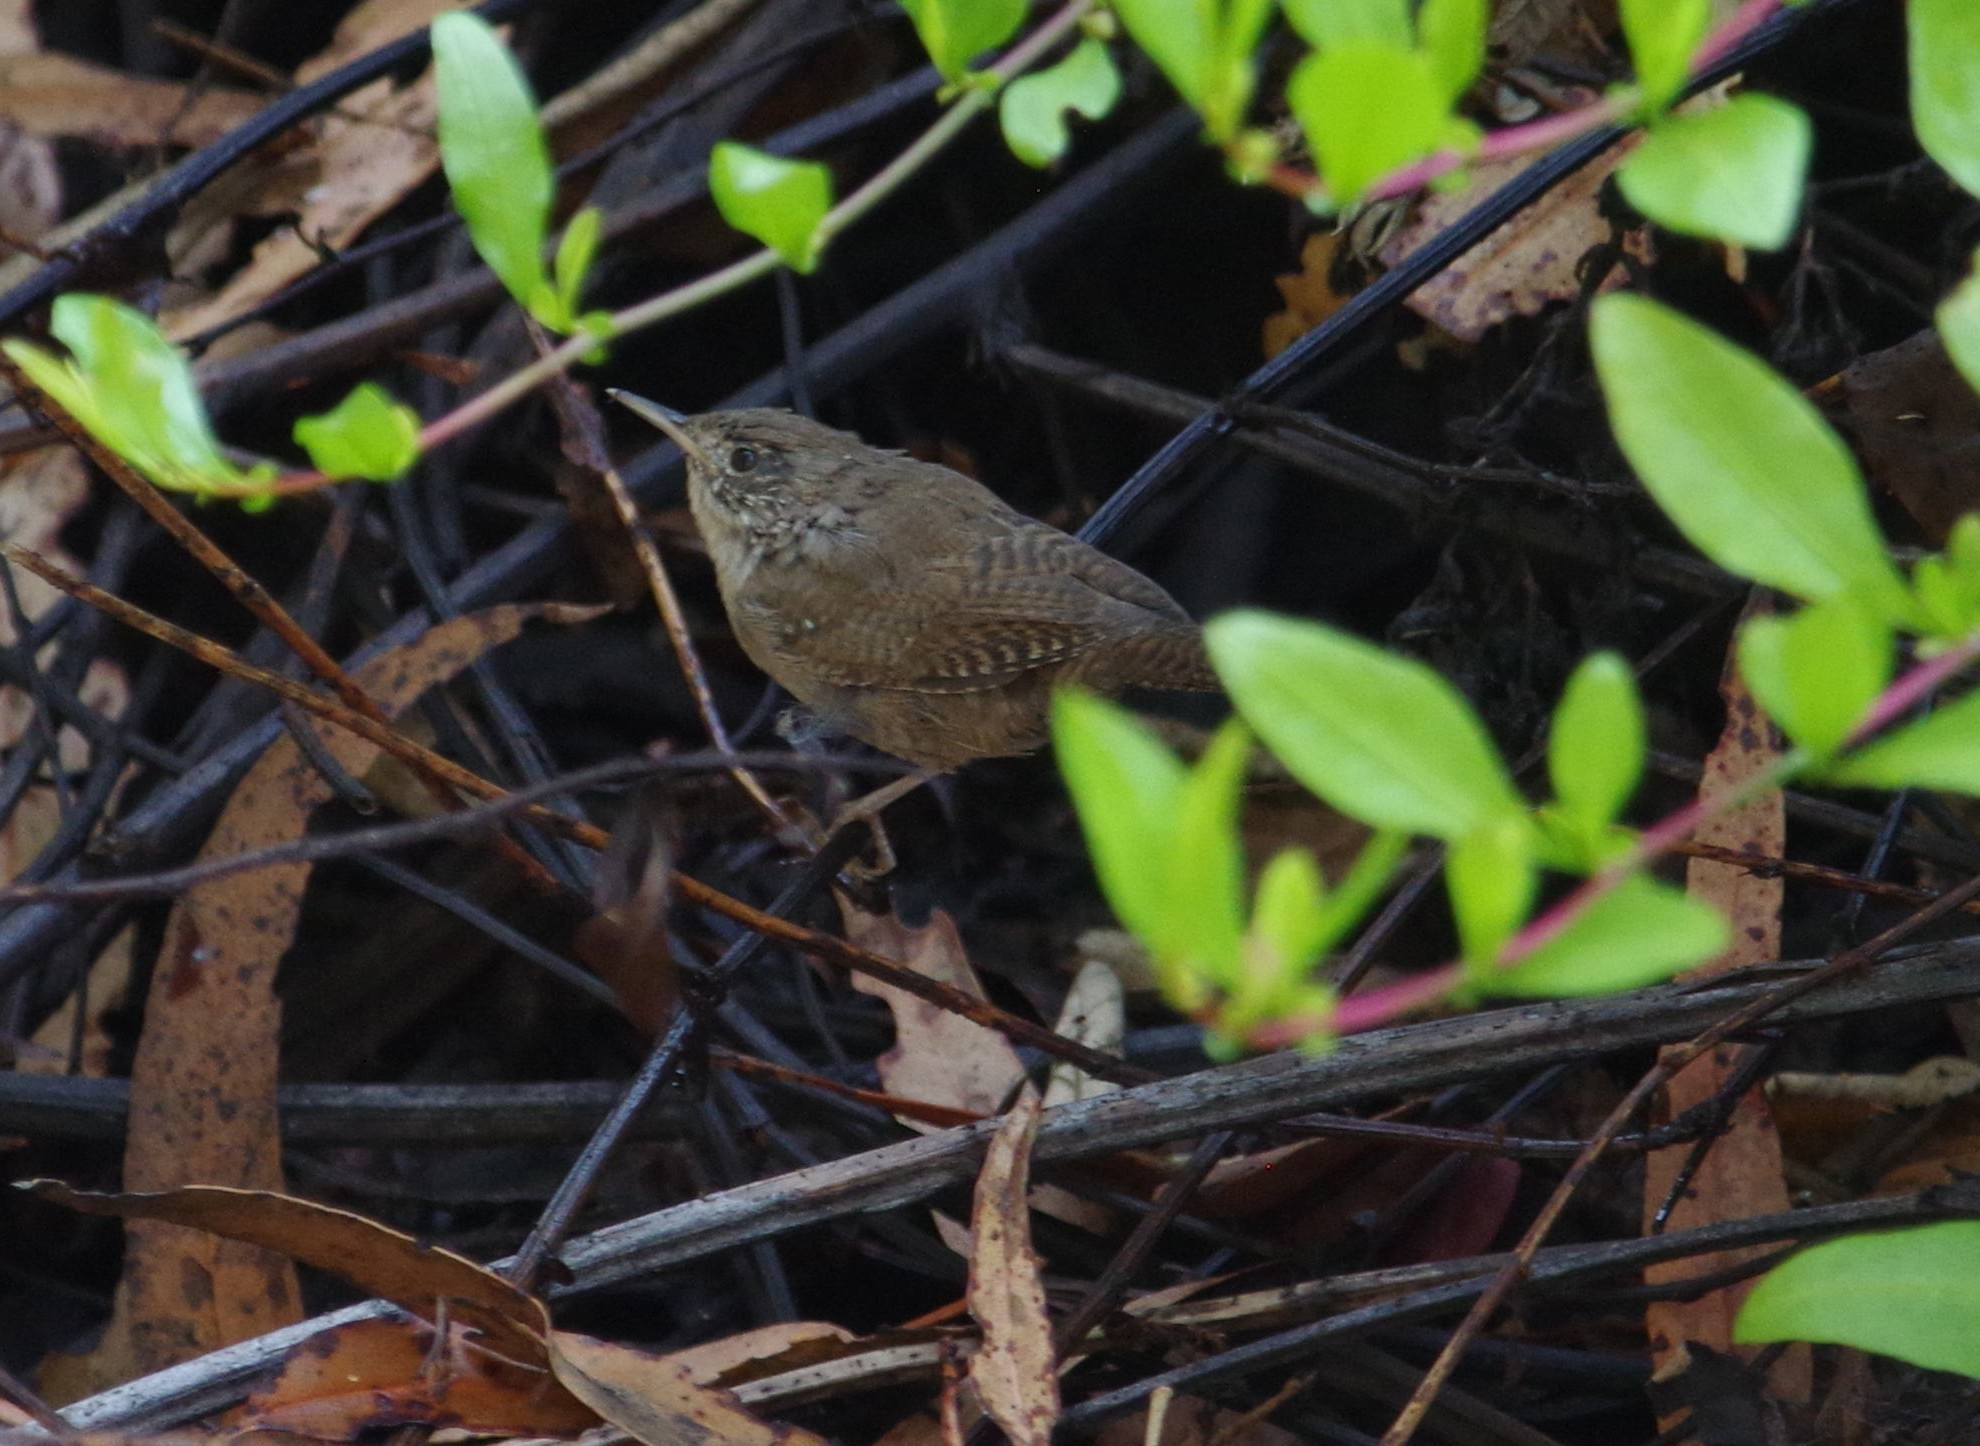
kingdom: Animalia
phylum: Chordata
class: Aves
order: Passeriformes
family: Troglodytidae
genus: Troglodytes
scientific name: Troglodytes aedon
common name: House wren
